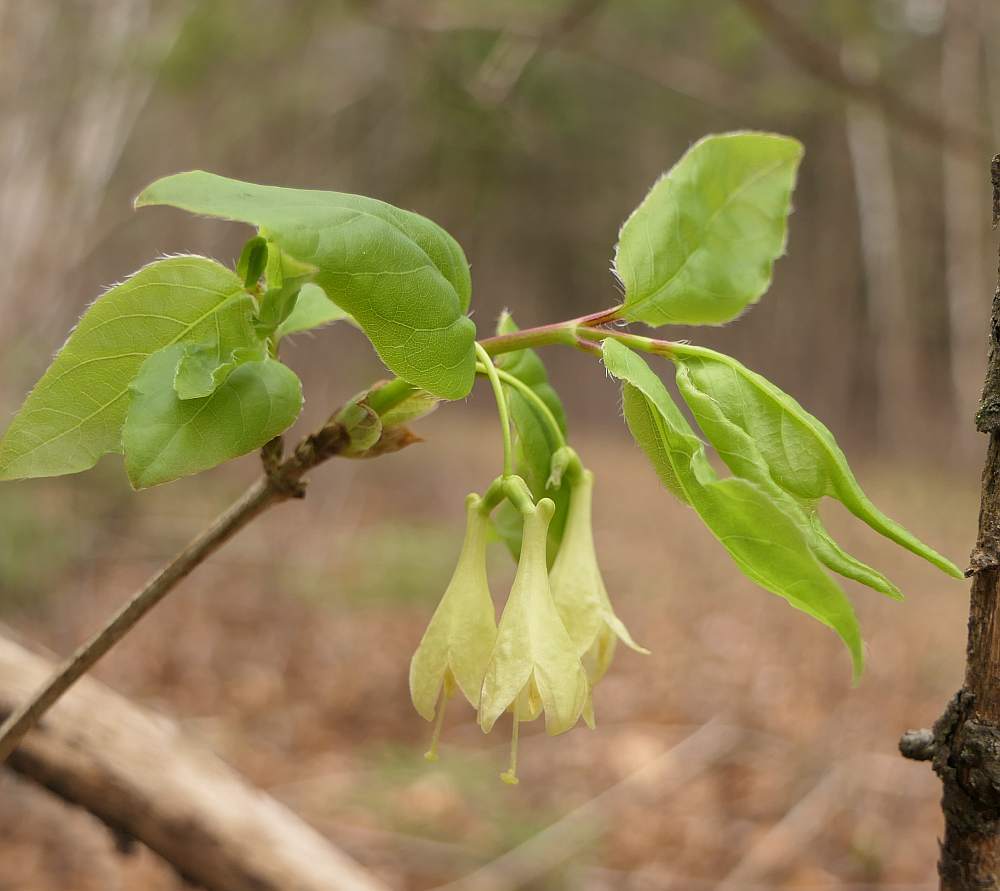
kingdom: Plantae
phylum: Tracheophyta
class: Magnoliopsida
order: Dipsacales
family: Caprifoliaceae
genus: Lonicera
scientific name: Lonicera canadensis
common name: American fly-honeysuckle
